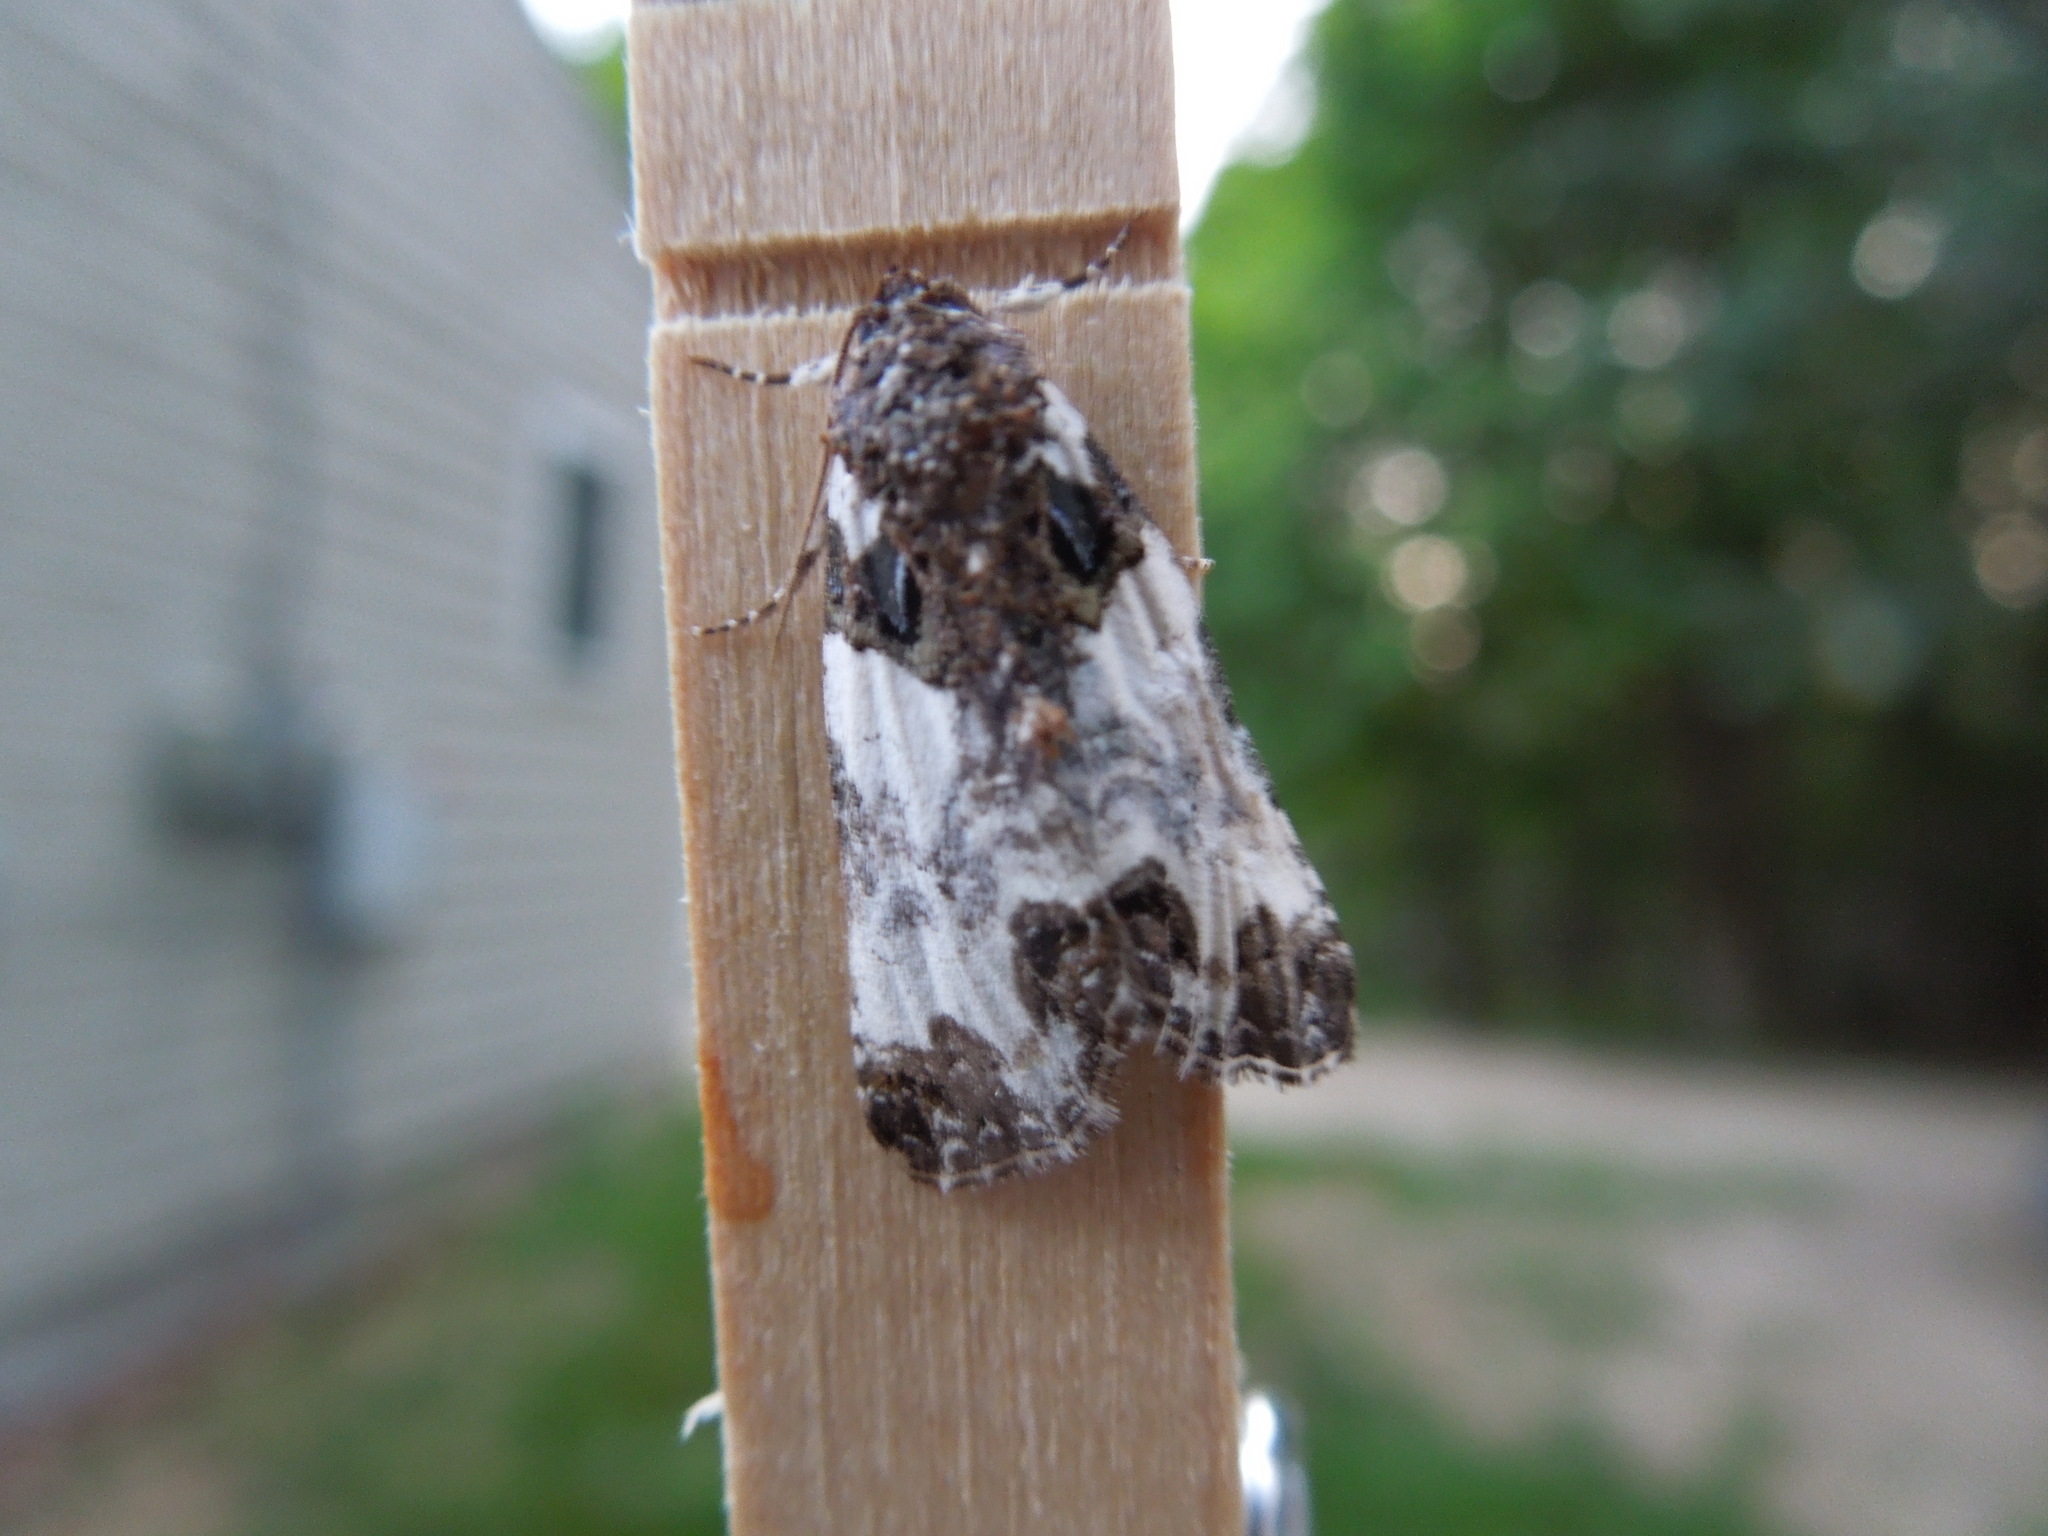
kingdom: Animalia
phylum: Arthropoda
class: Insecta
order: Lepidoptera
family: Noctuidae
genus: Cerma
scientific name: Cerma cerintha
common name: Tufted bird-dropping moth
